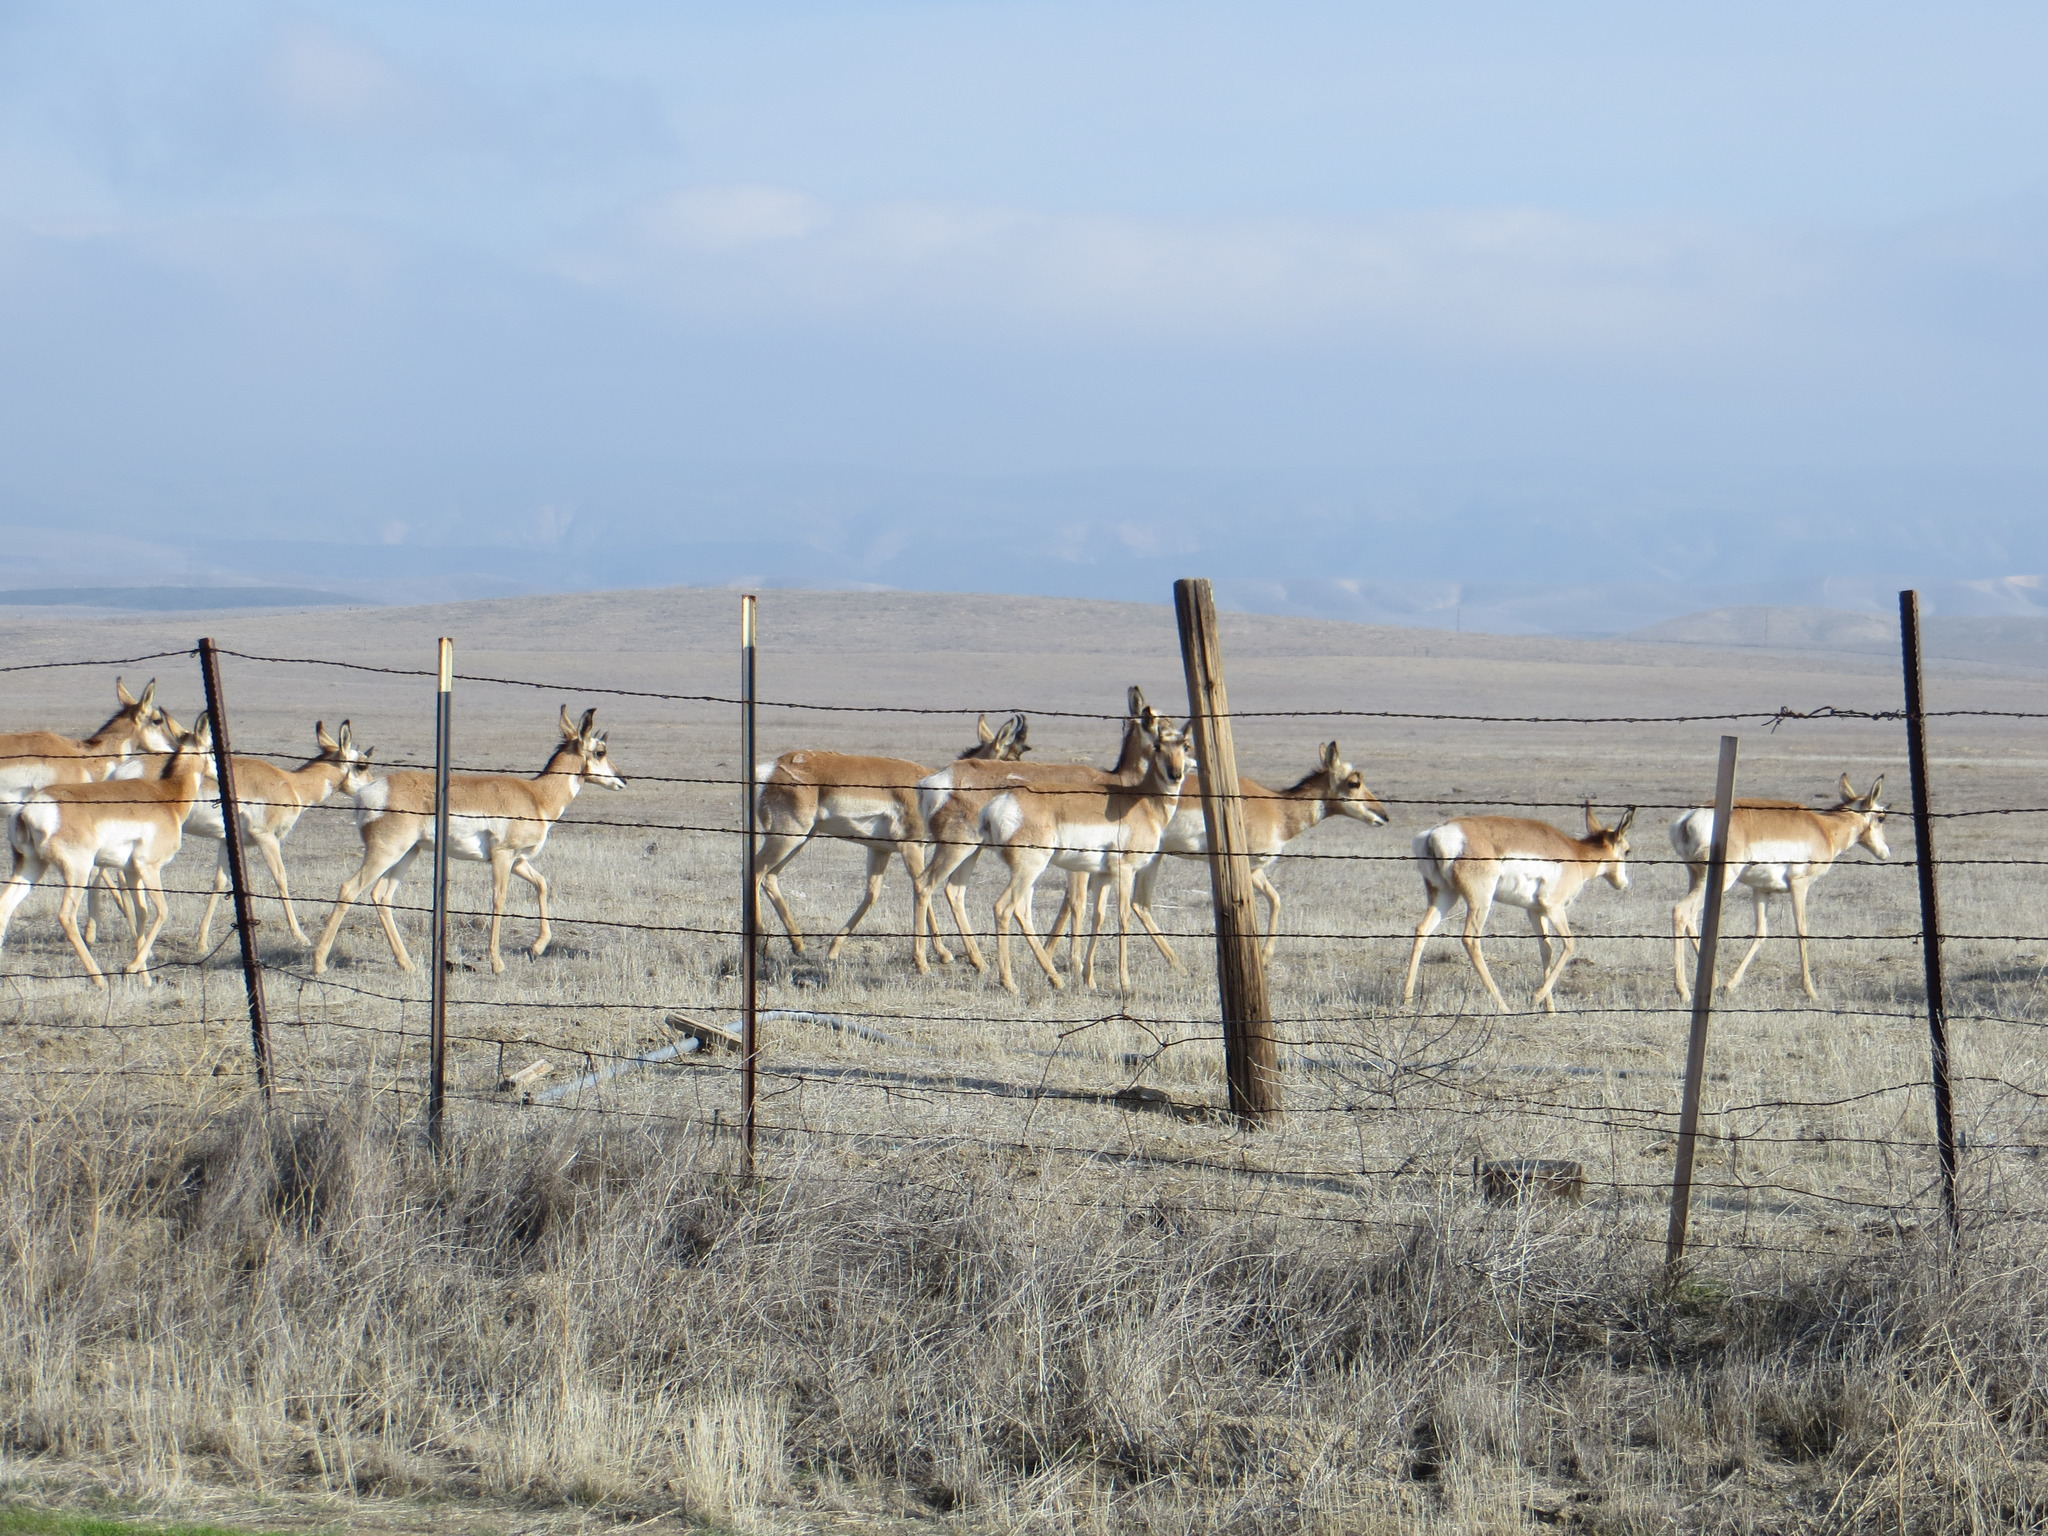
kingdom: Animalia
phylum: Chordata
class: Mammalia
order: Artiodactyla
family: Antilocapridae
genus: Antilocapra
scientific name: Antilocapra americana
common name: Pronghorn
